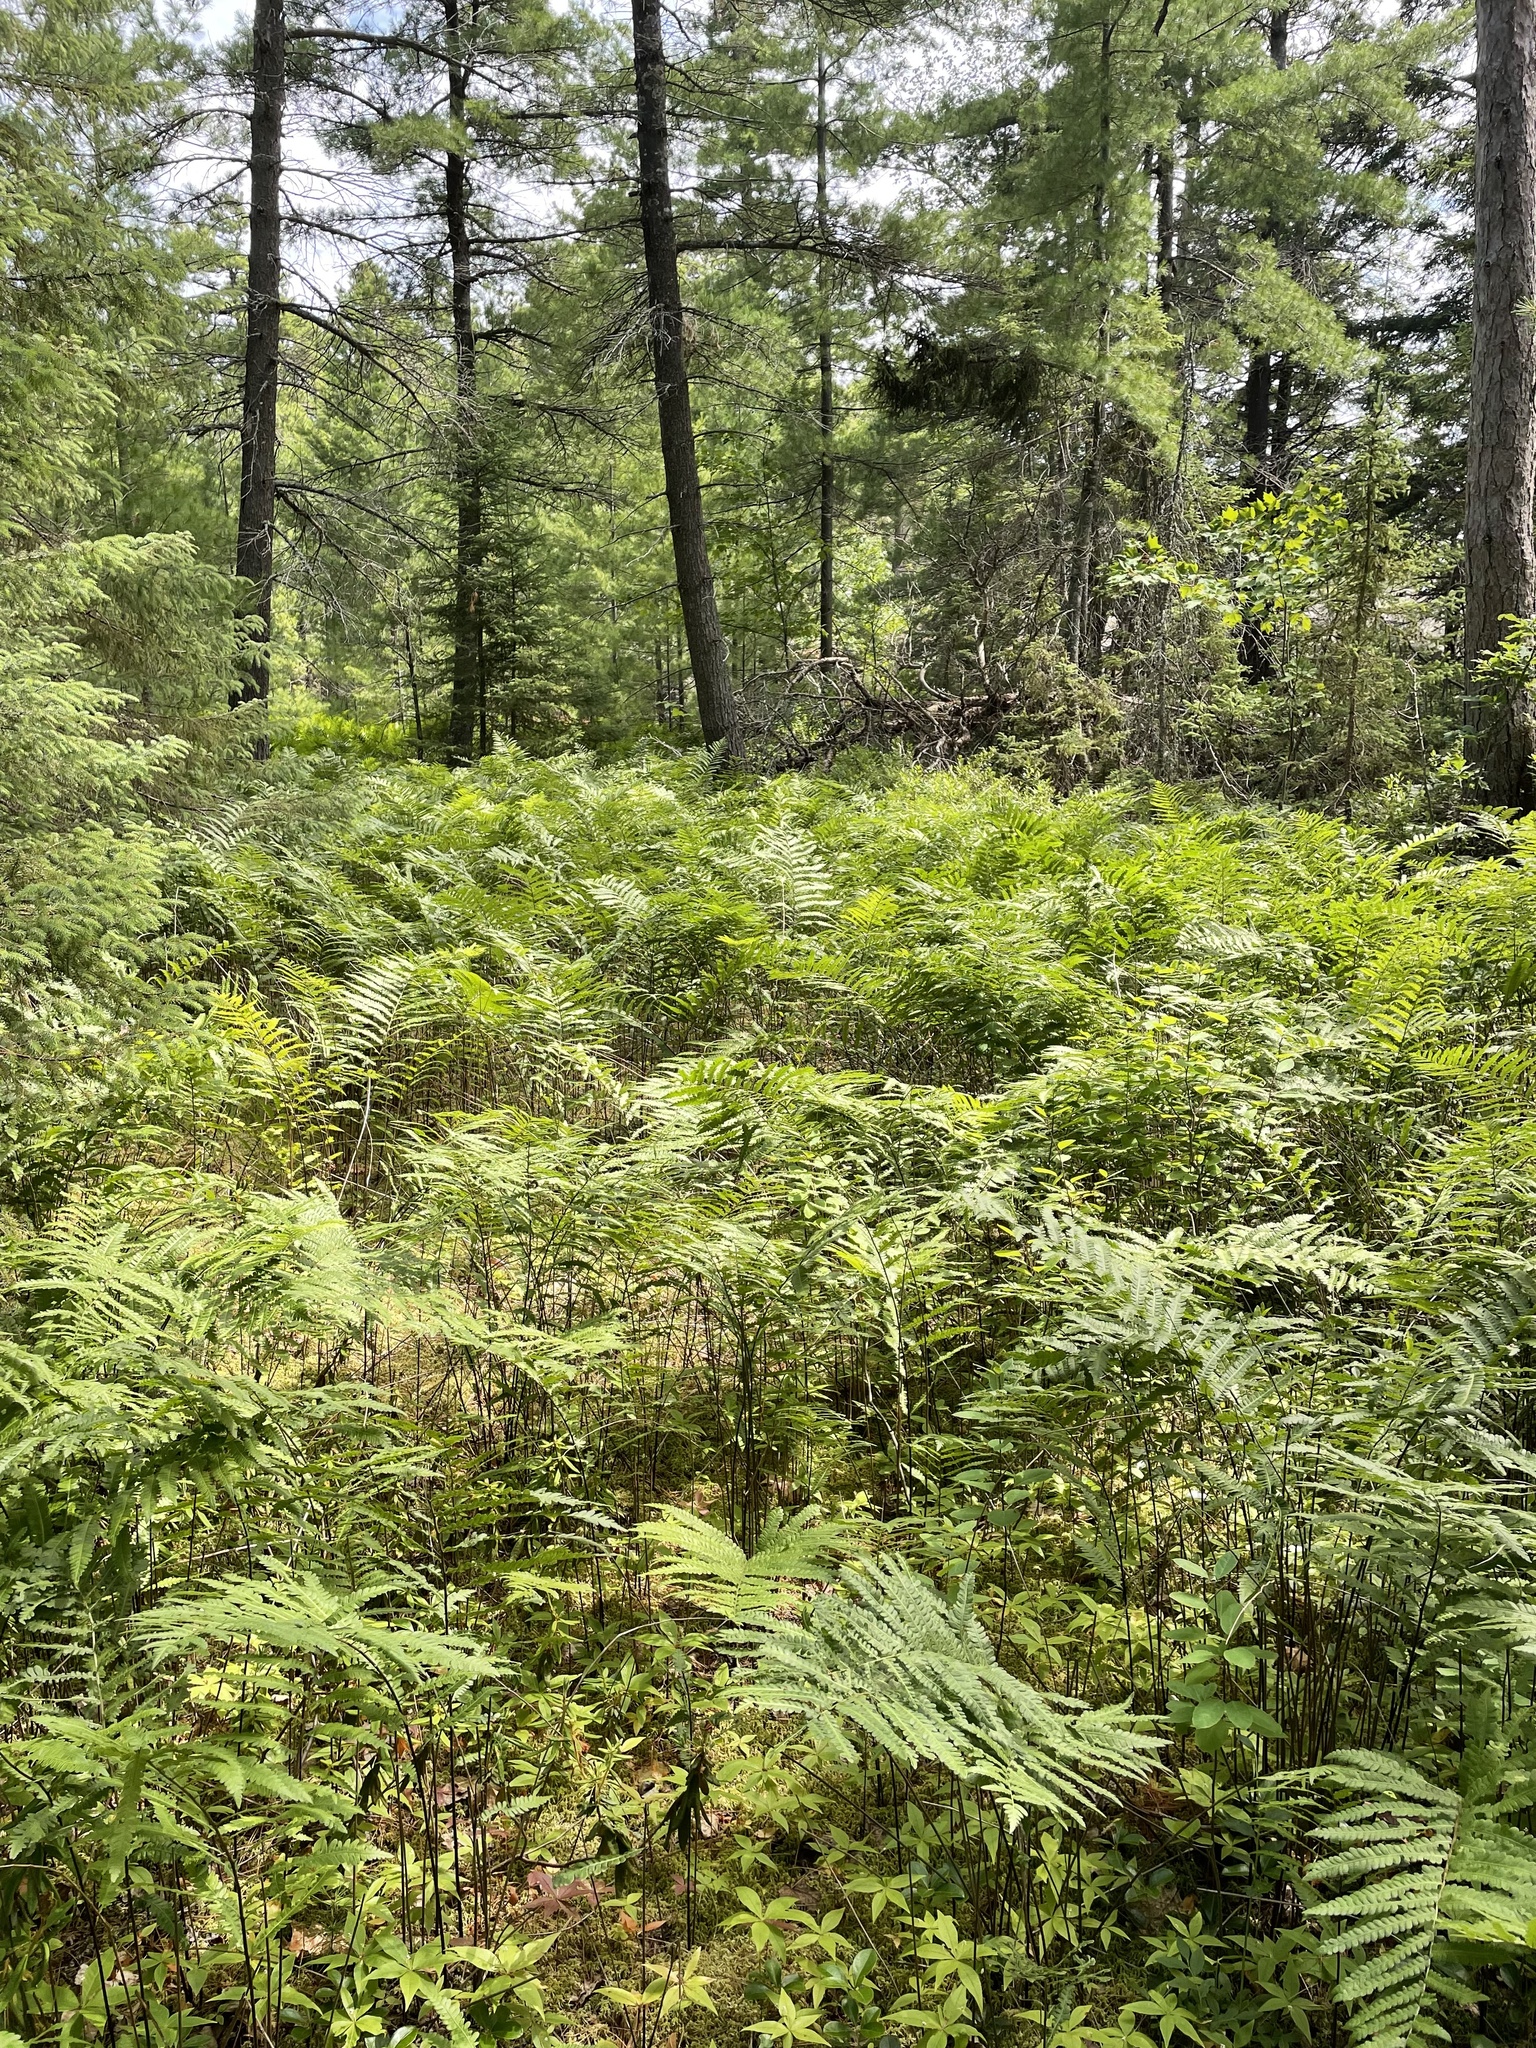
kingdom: Plantae
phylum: Tracheophyta
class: Polypodiopsida
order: Polypodiales
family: Blechnaceae
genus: Anchistea
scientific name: Anchistea virginica
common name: Virginia chain fern
